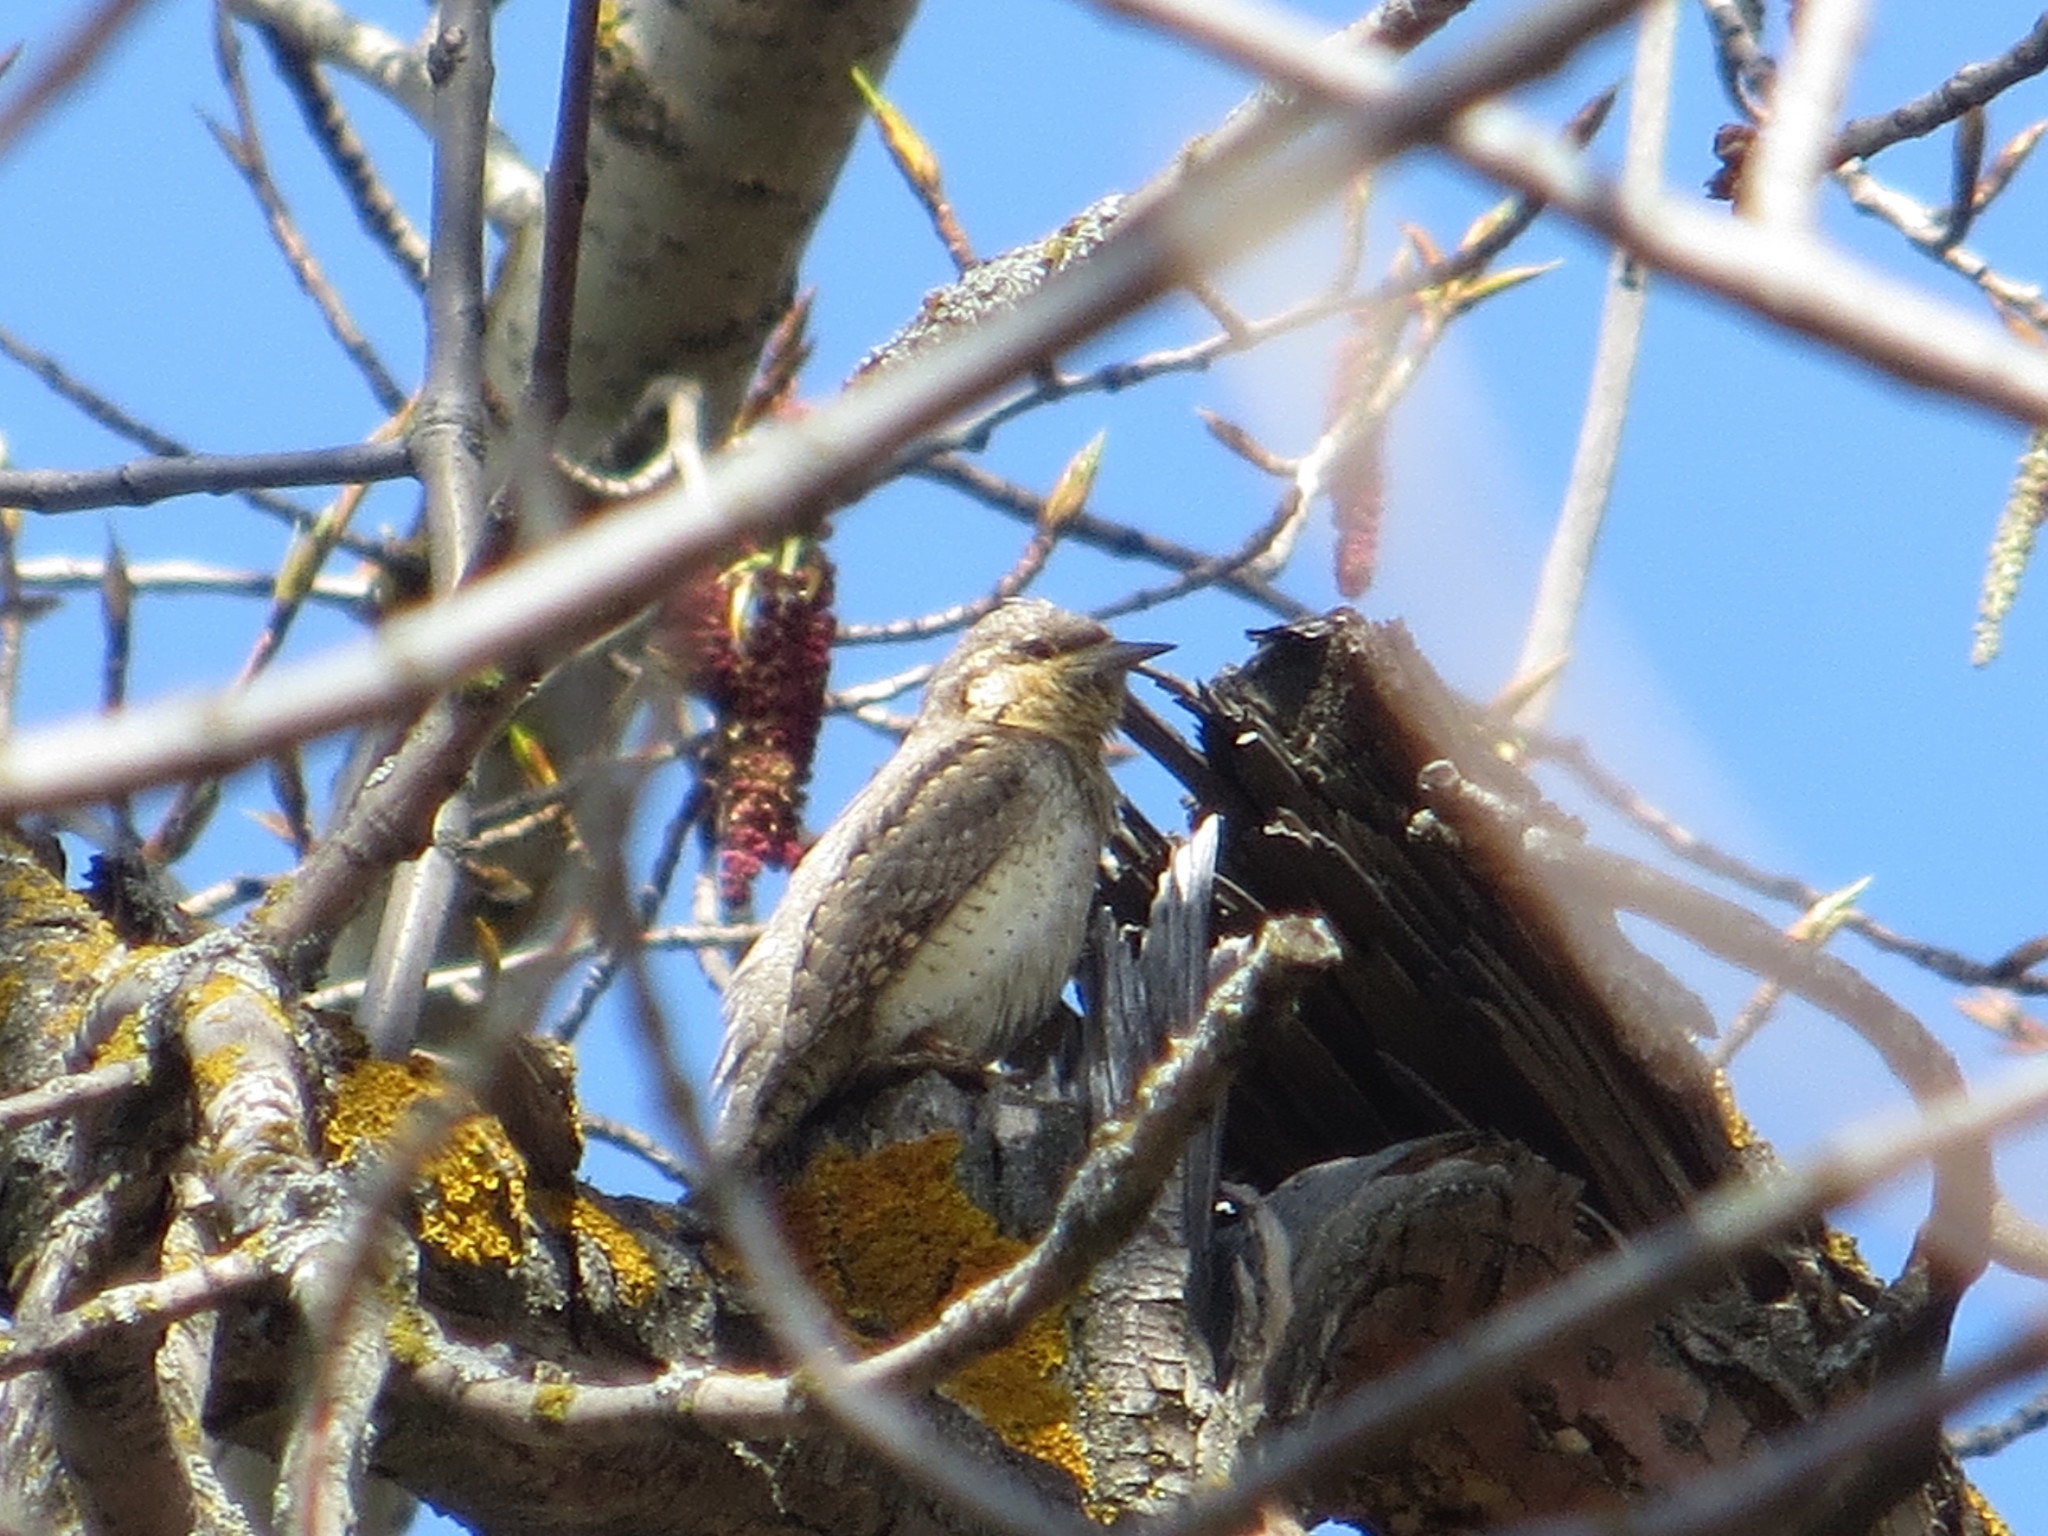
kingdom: Animalia
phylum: Chordata
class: Aves
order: Piciformes
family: Picidae
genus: Jynx
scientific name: Jynx torquilla
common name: Eurasian wryneck
